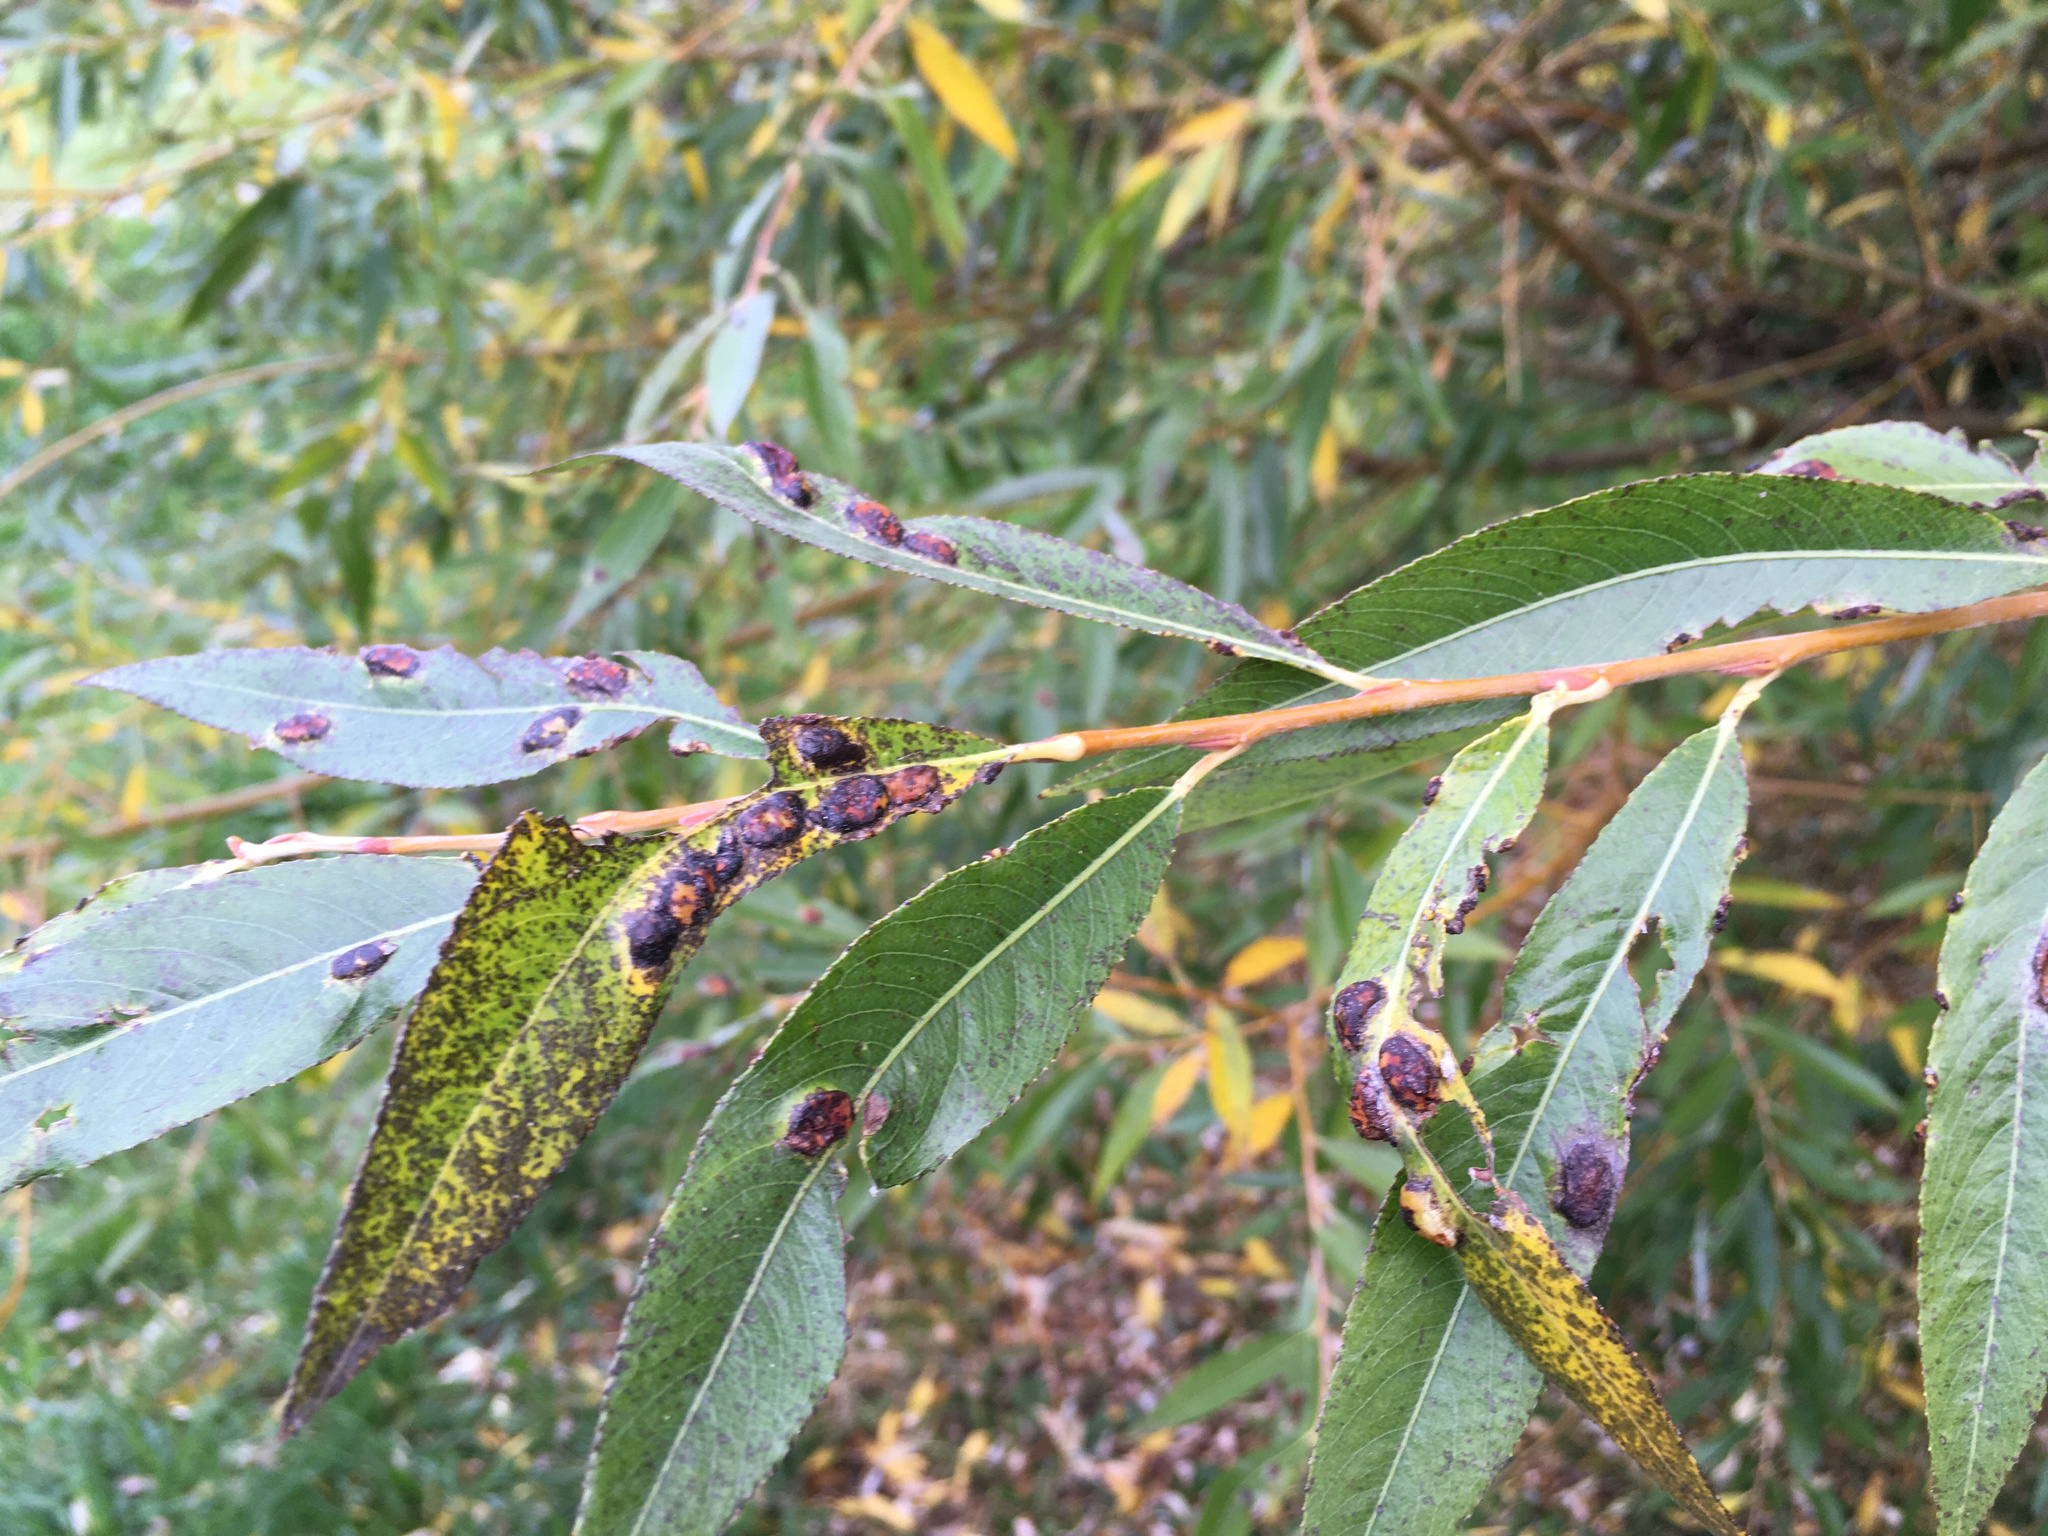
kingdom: Animalia
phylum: Arthropoda
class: Insecta
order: Hymenoptera
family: Tenthredinidae
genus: Pontania
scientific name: Pontania proxima
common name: Common sawfly
